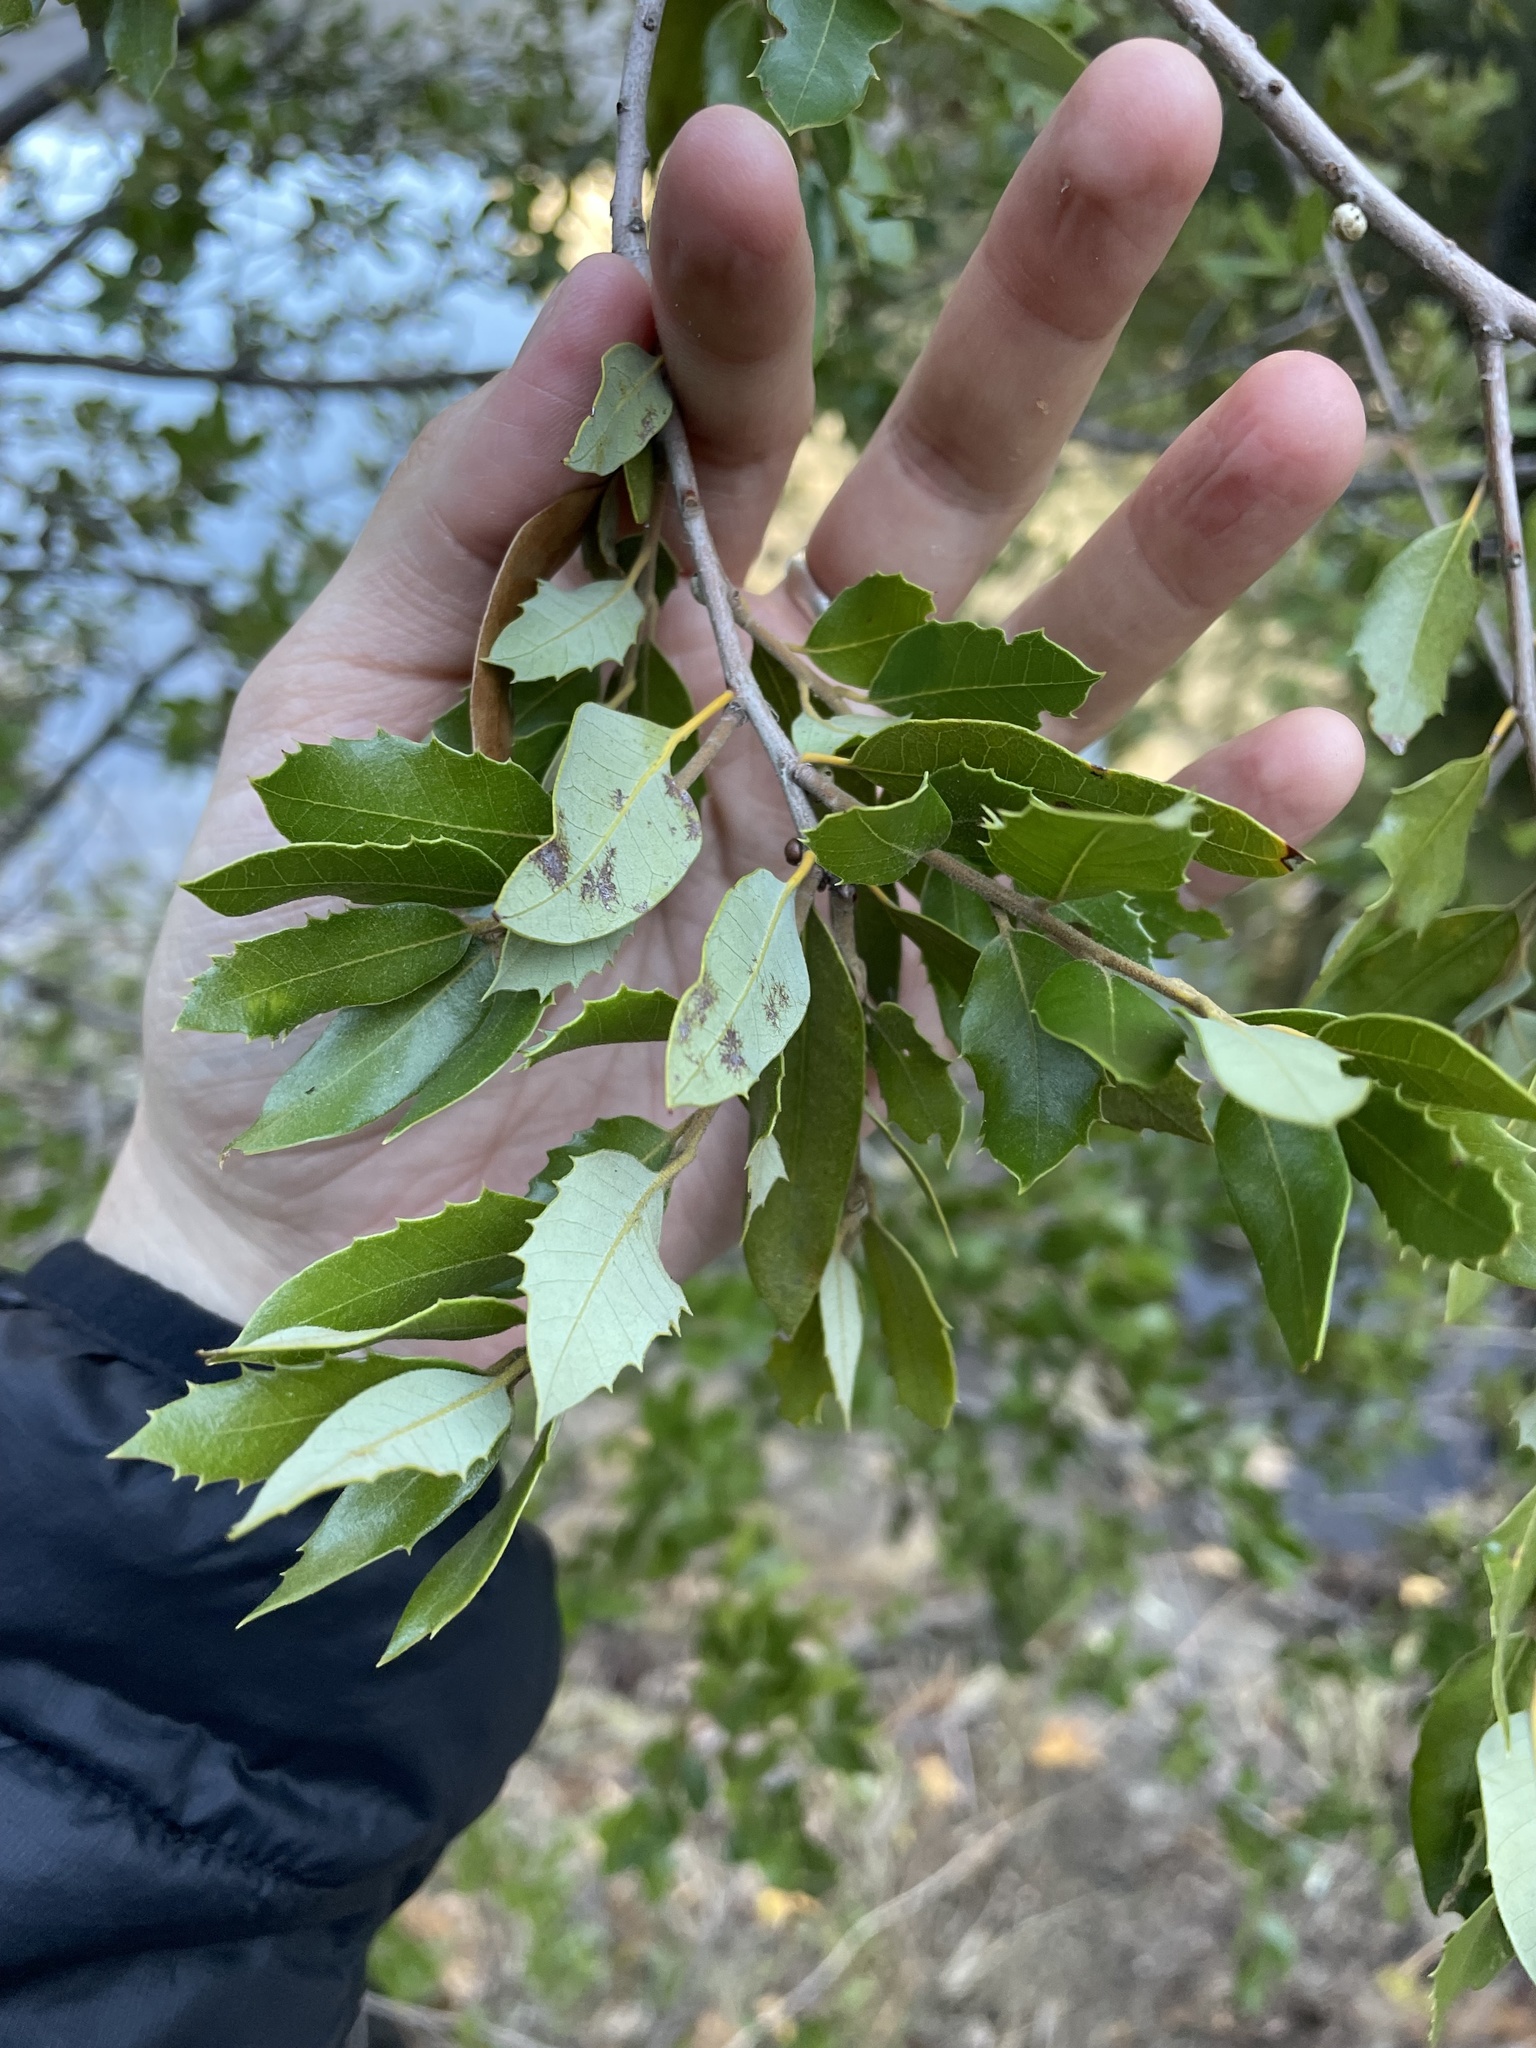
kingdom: Plantae
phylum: Tracheophyta
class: Magnoliopsida
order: Fagales
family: Fagaceae
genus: Quercus
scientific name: Quercus chrysolepis
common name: Canyon live oak
